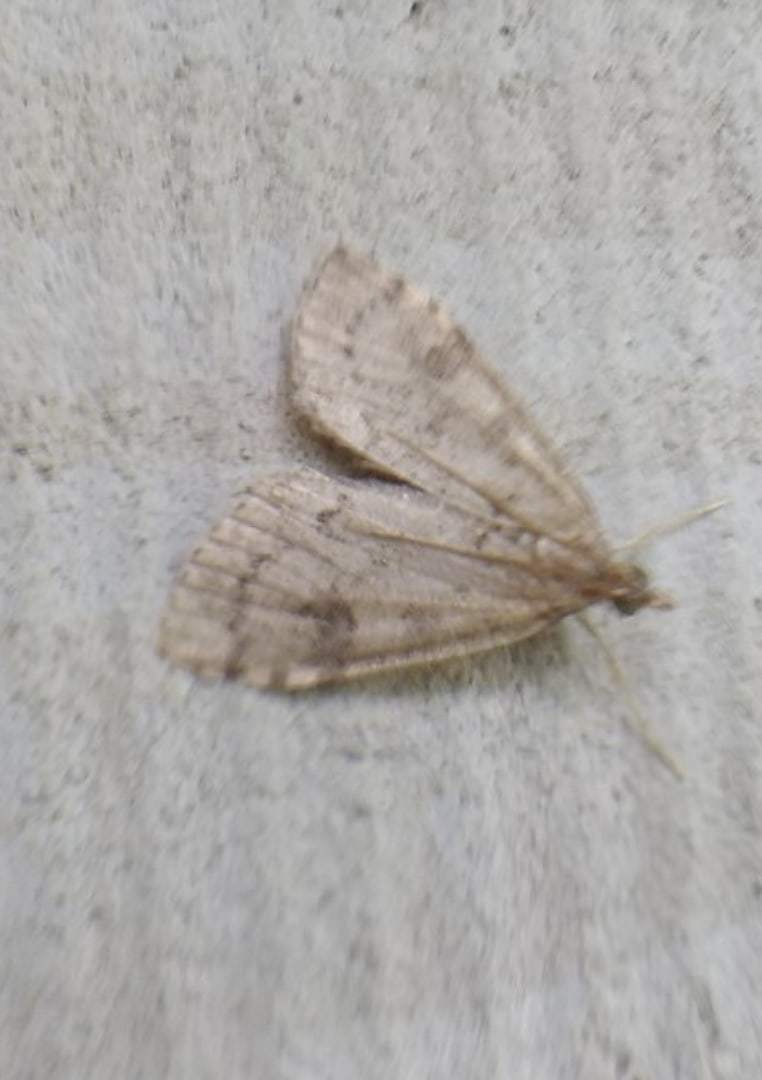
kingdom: Animalia
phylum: Arthropoda
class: Insecta
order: Lepidoptera
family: Crambidae
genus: Udea
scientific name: Udea prunalis
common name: Dusky pearl
